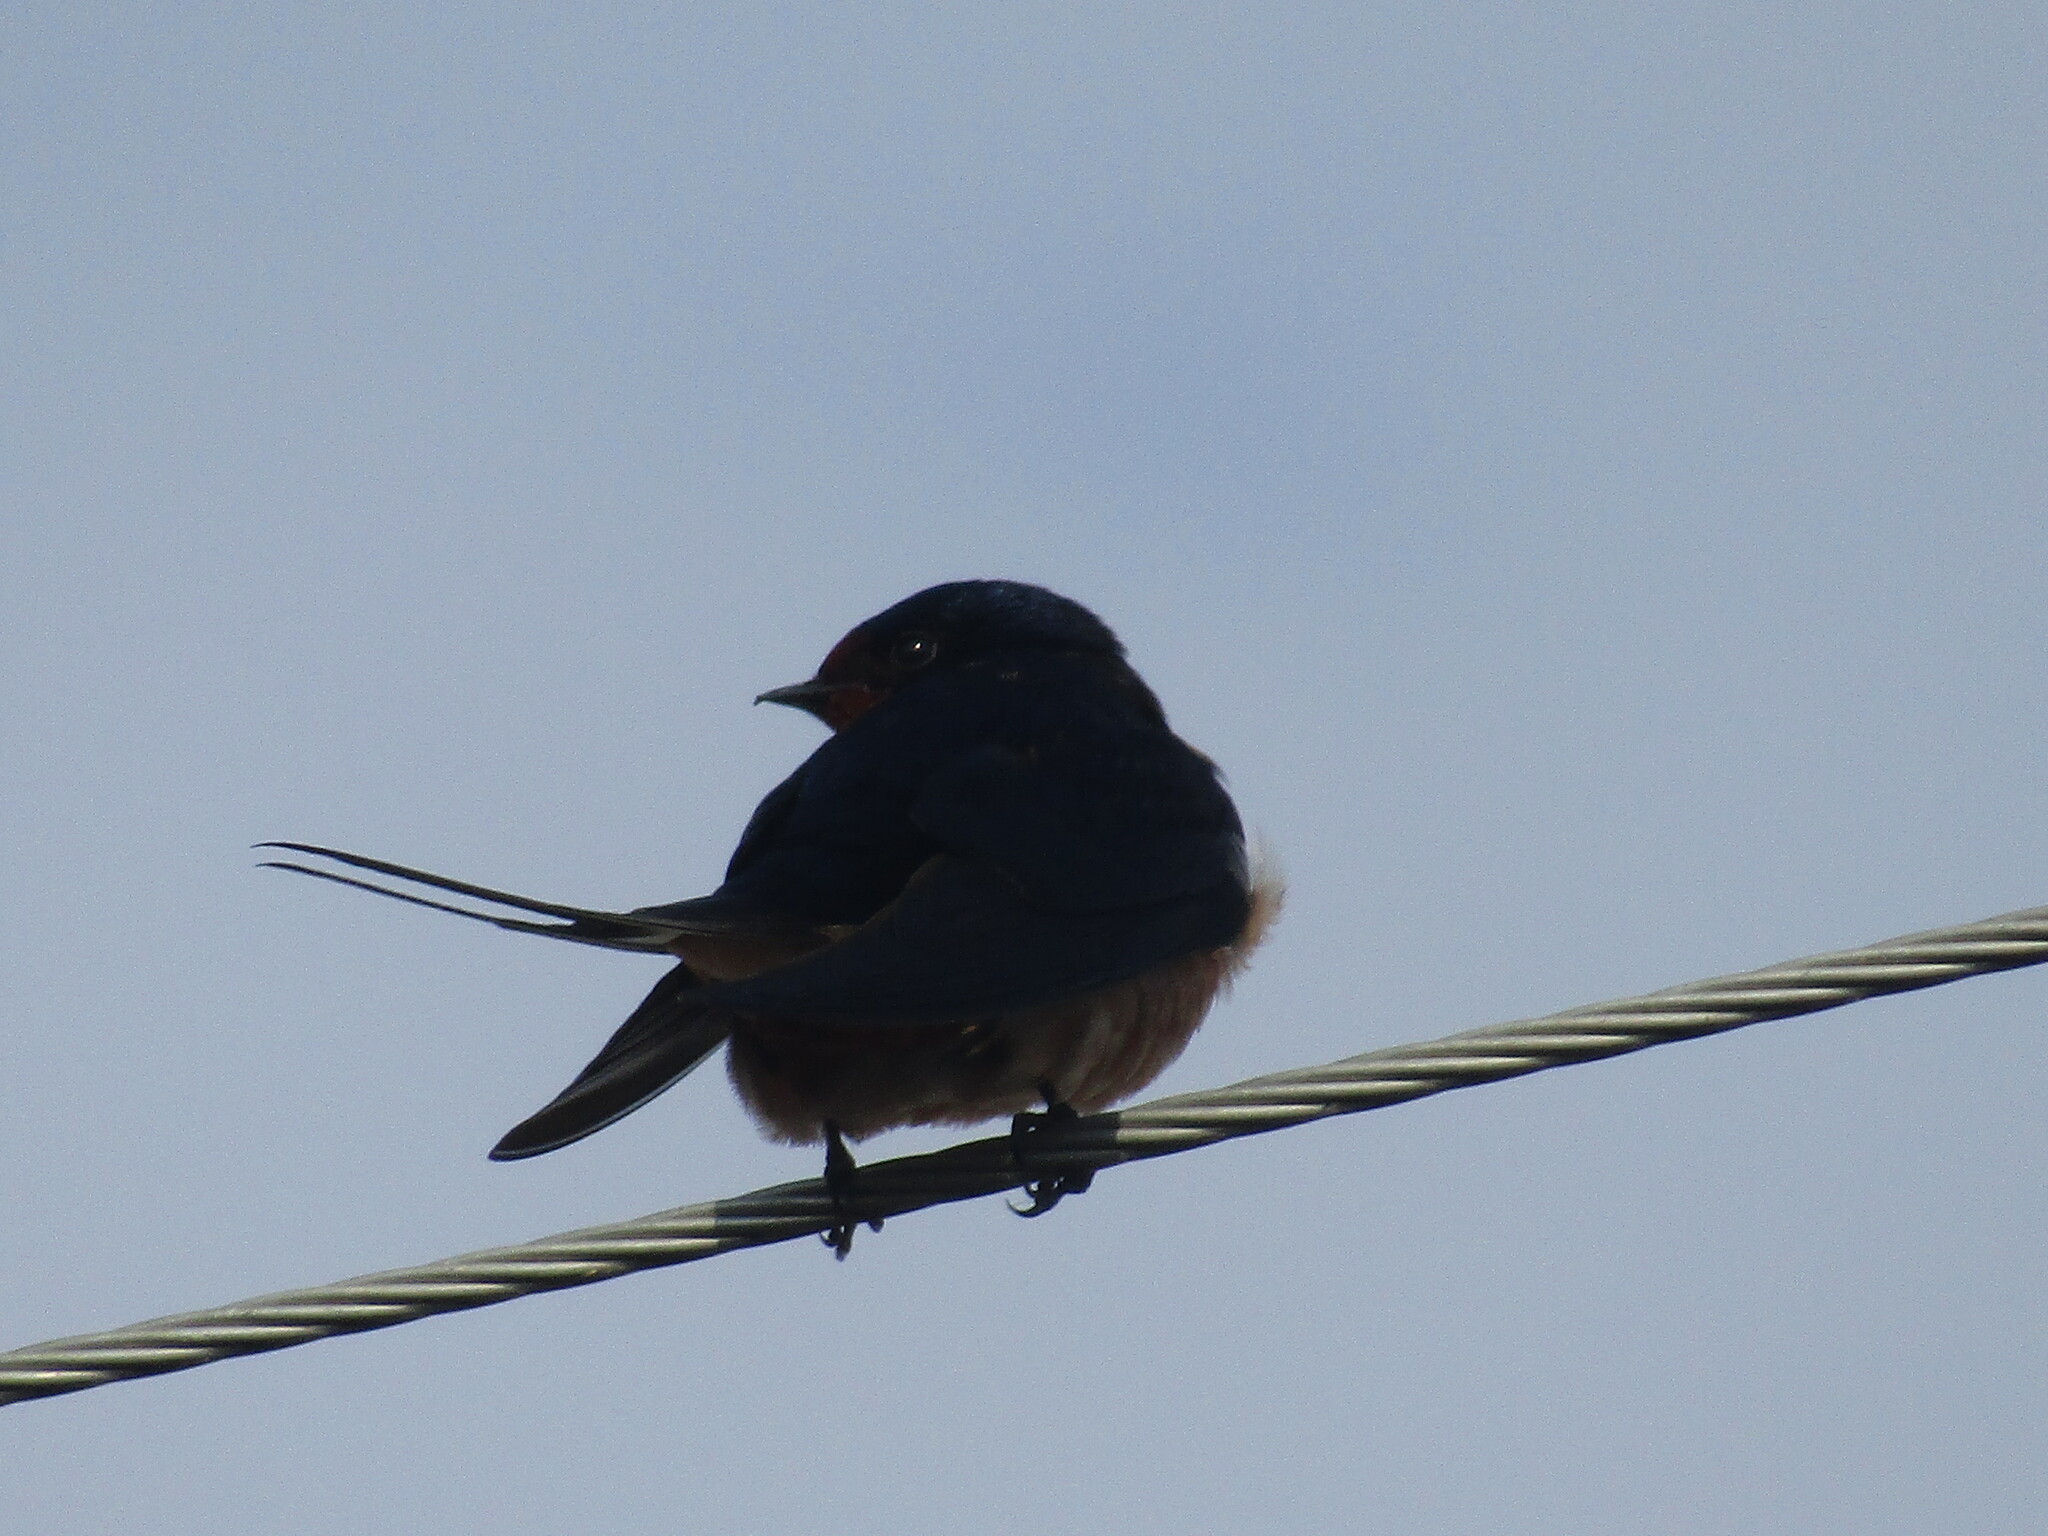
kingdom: Animalia
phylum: Chordata
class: Aves
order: Passeriformes
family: Hirundinidae
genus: Hirundo
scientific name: Hirundo rustica
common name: Barn swallow
